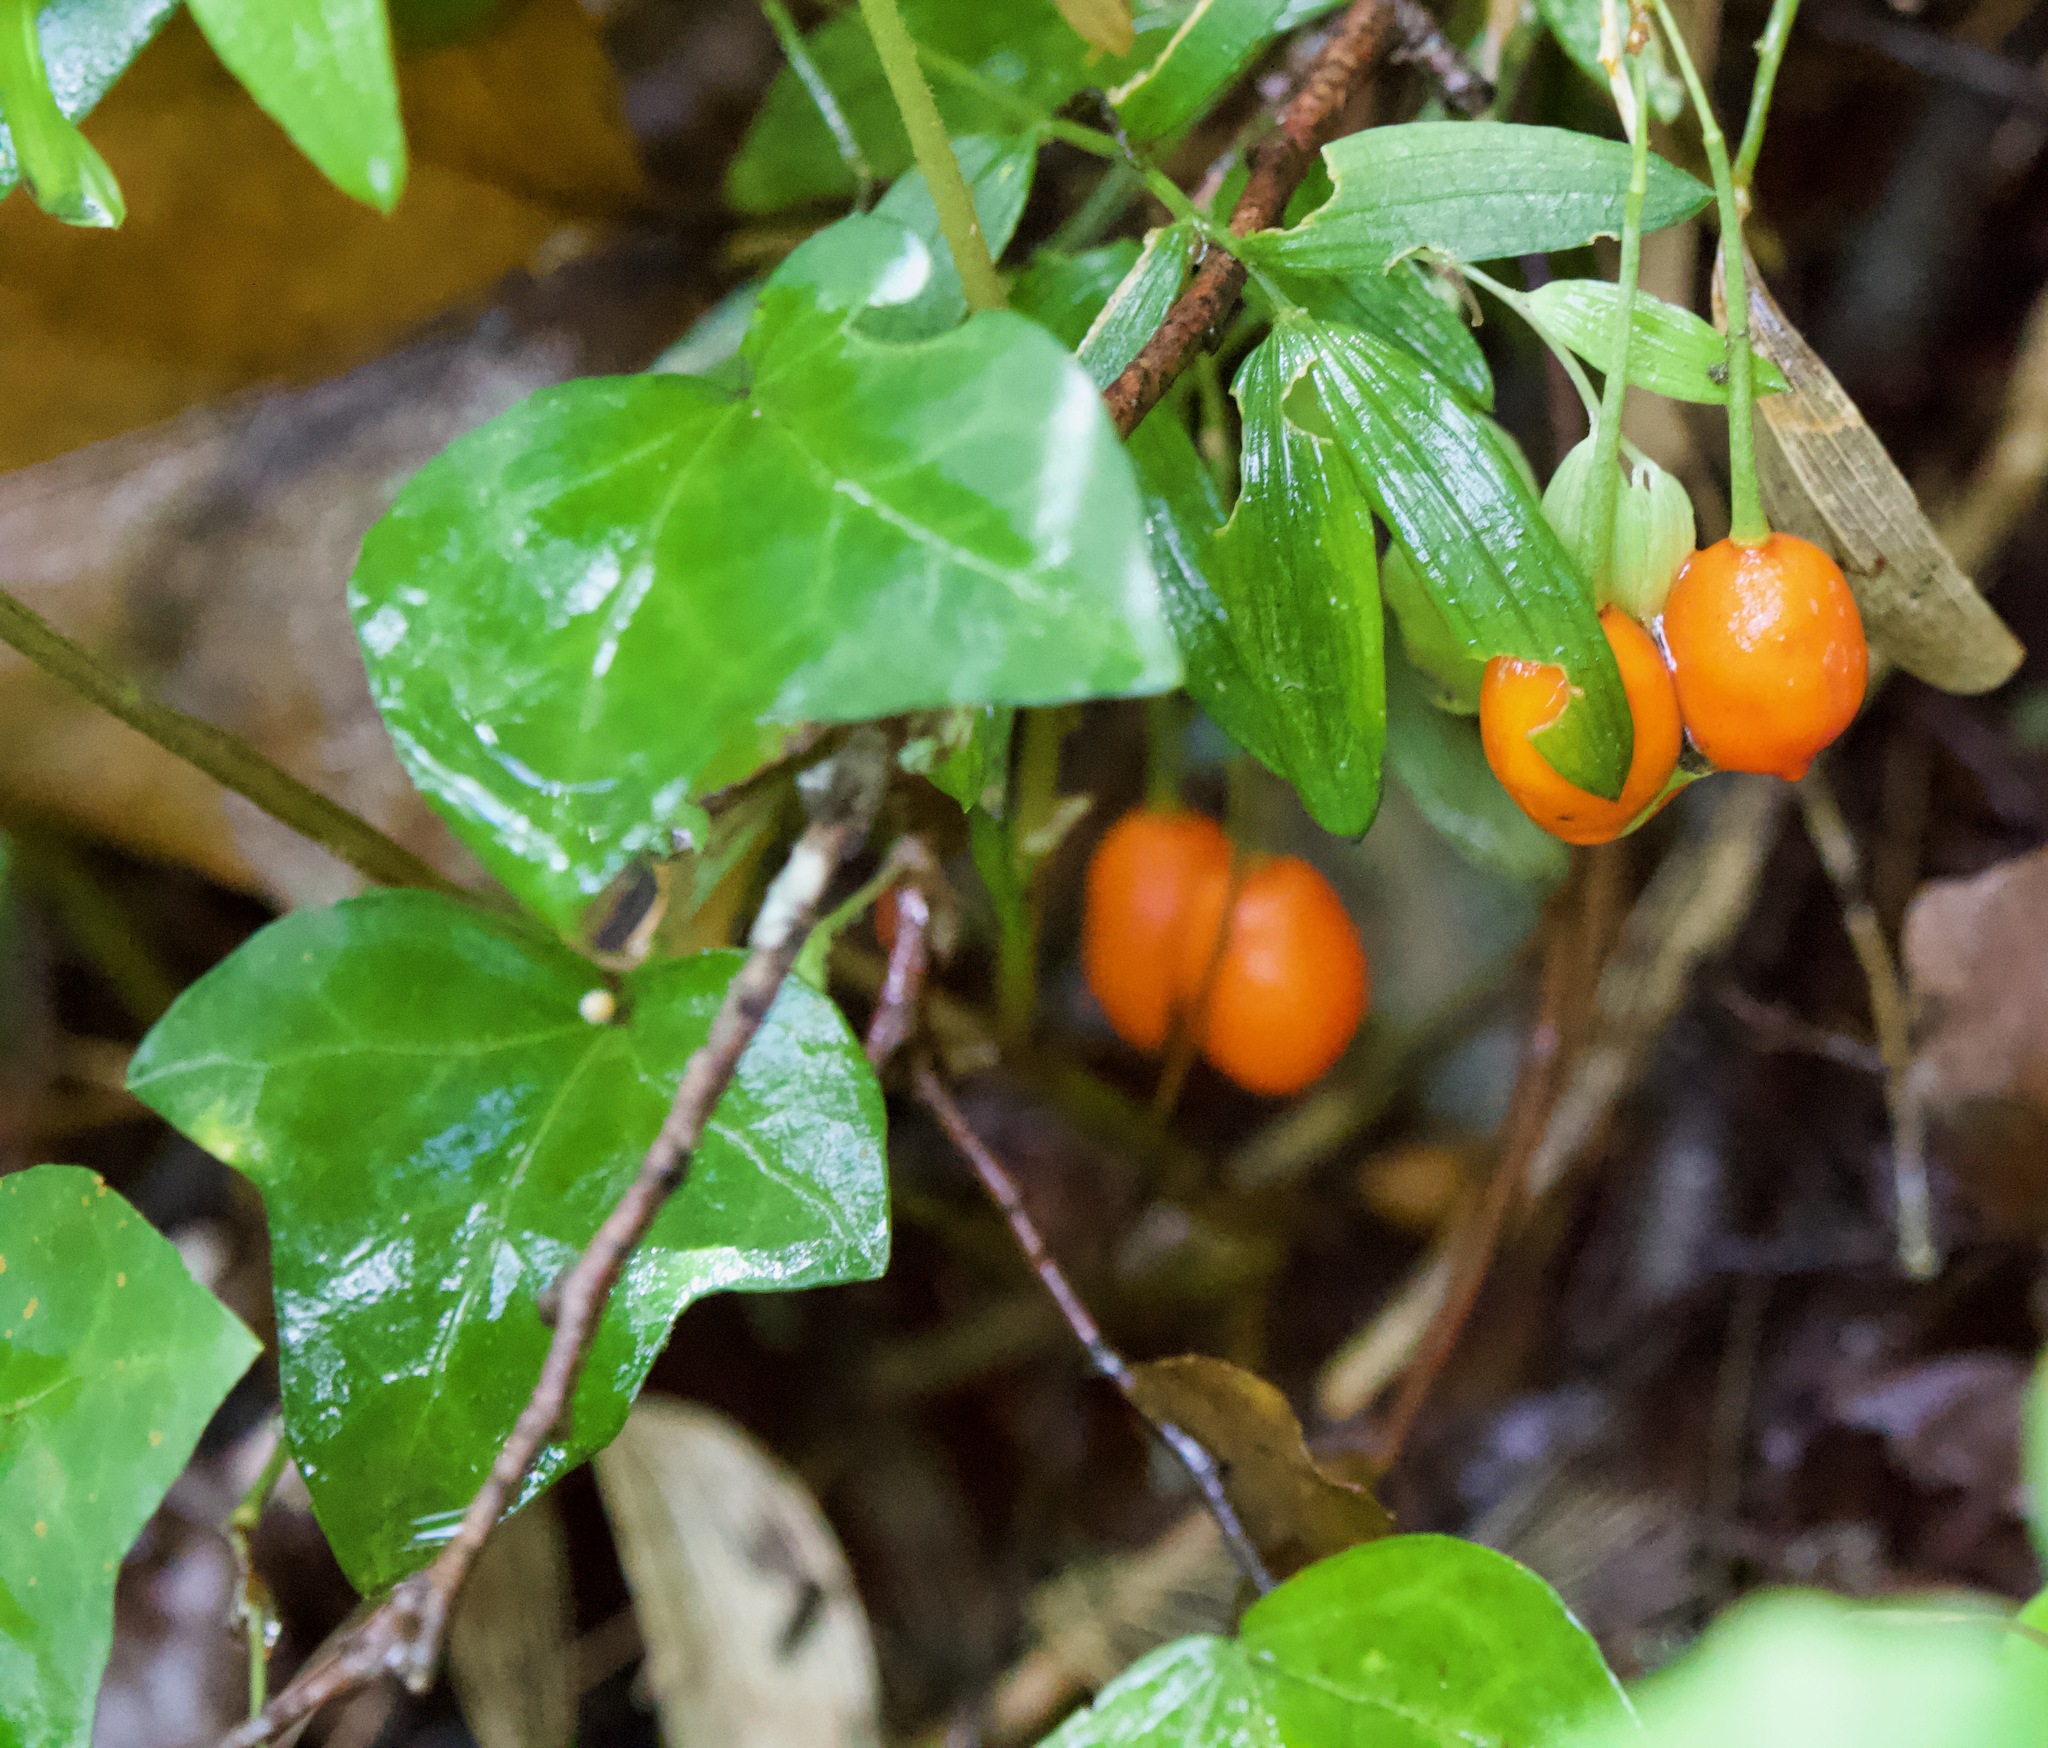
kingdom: Plantae
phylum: Tracheophyta
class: Liliopsida
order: Liliales
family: Alstroemeriaceae
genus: Luzuriaga
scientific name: Luzuriaga radicans
